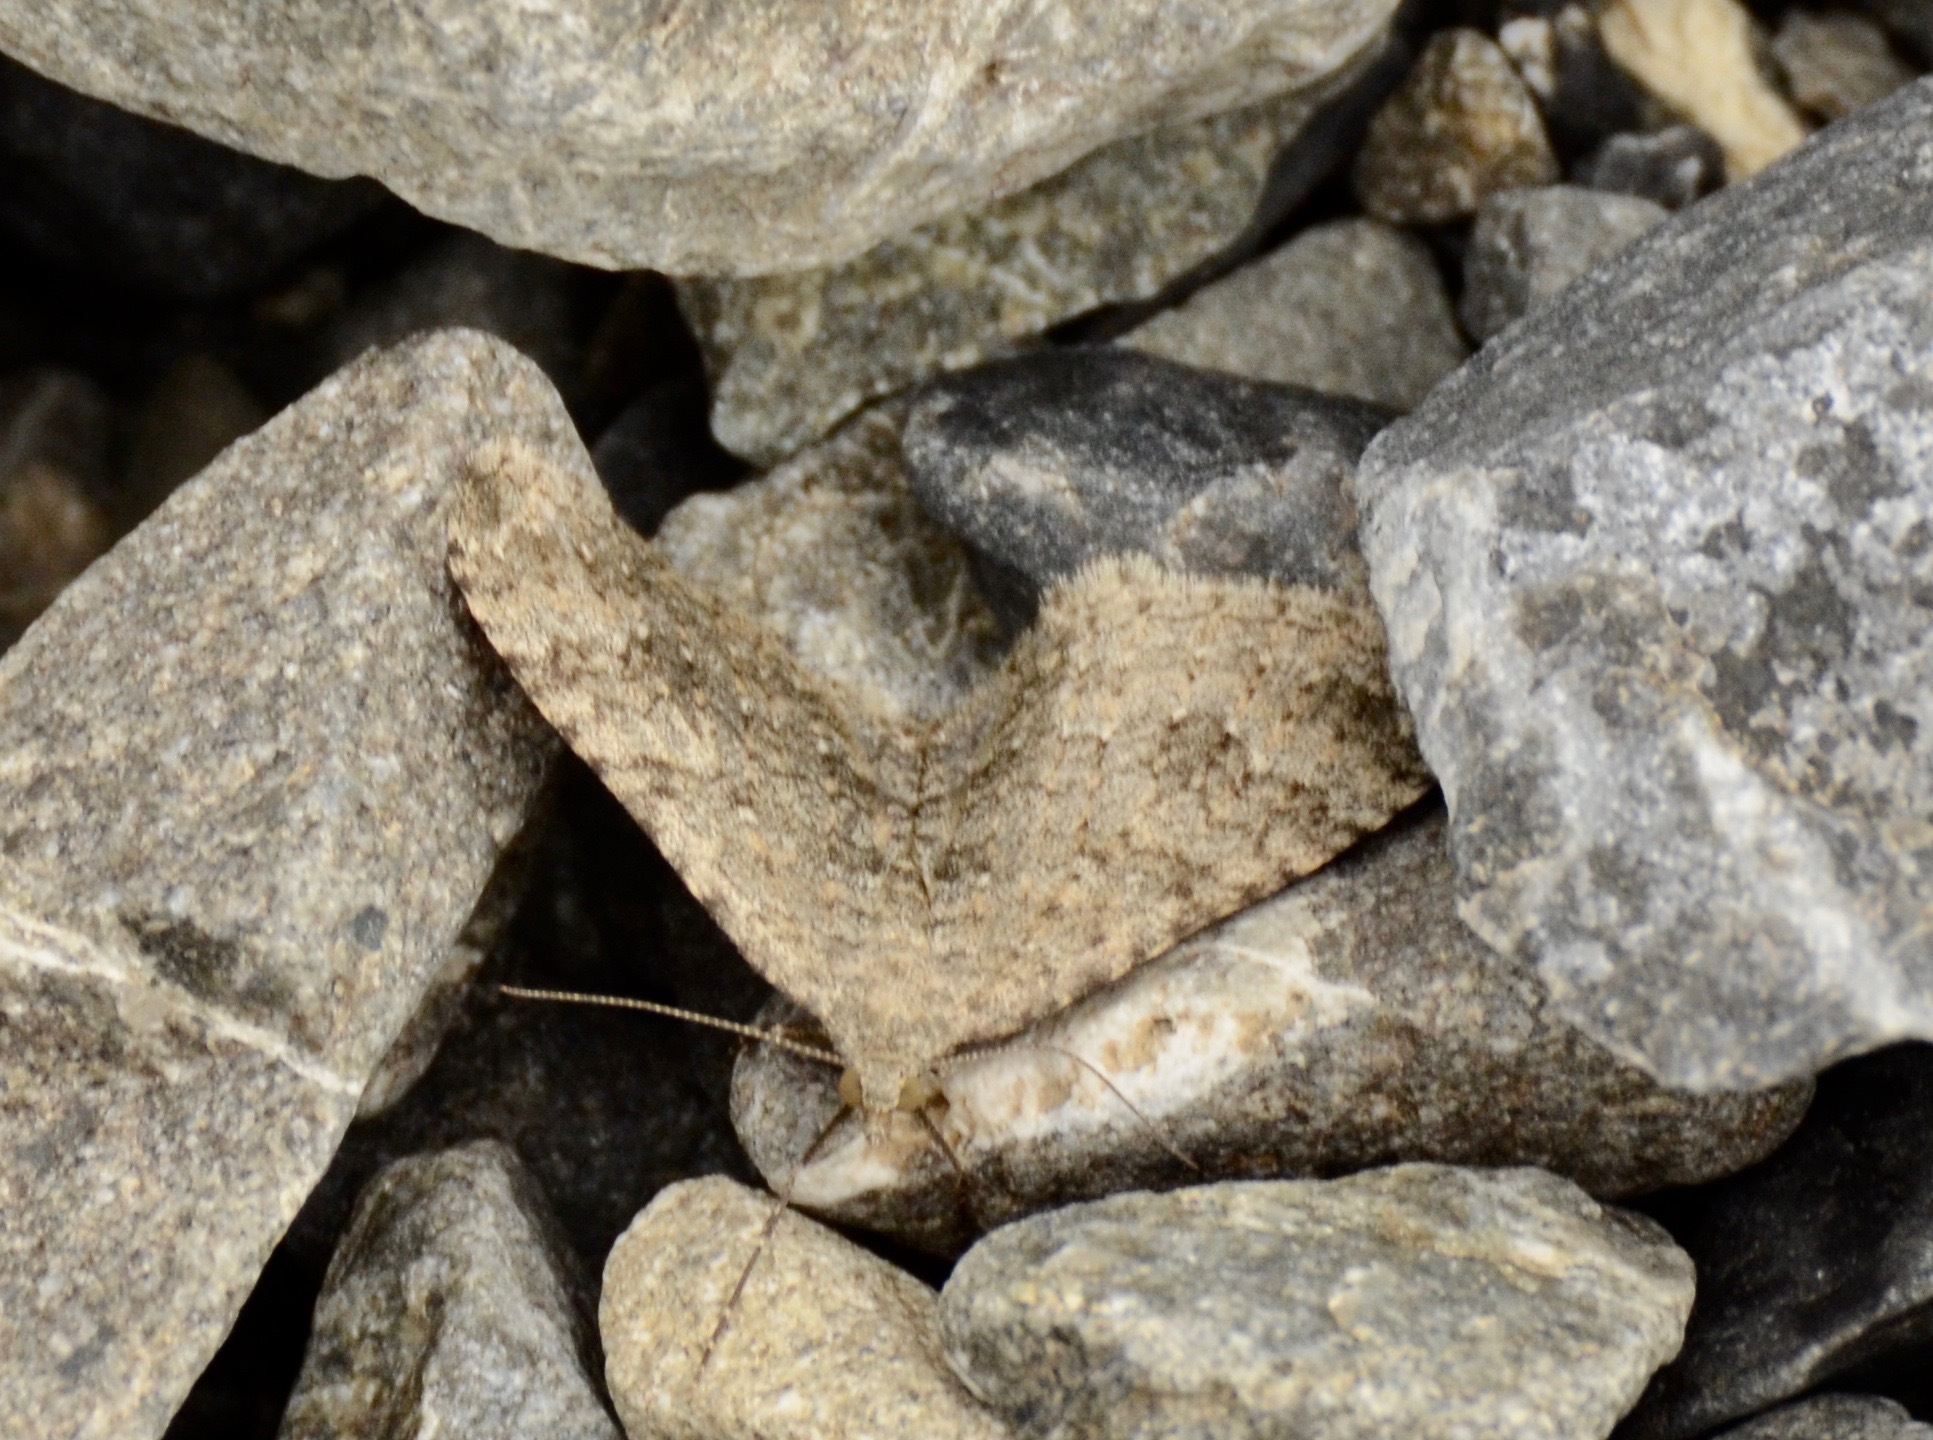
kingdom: Animalia
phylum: Arthropoda
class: Insecta
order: Lepidoptera
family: Geometridae
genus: Helastia
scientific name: Helastia corcularia
